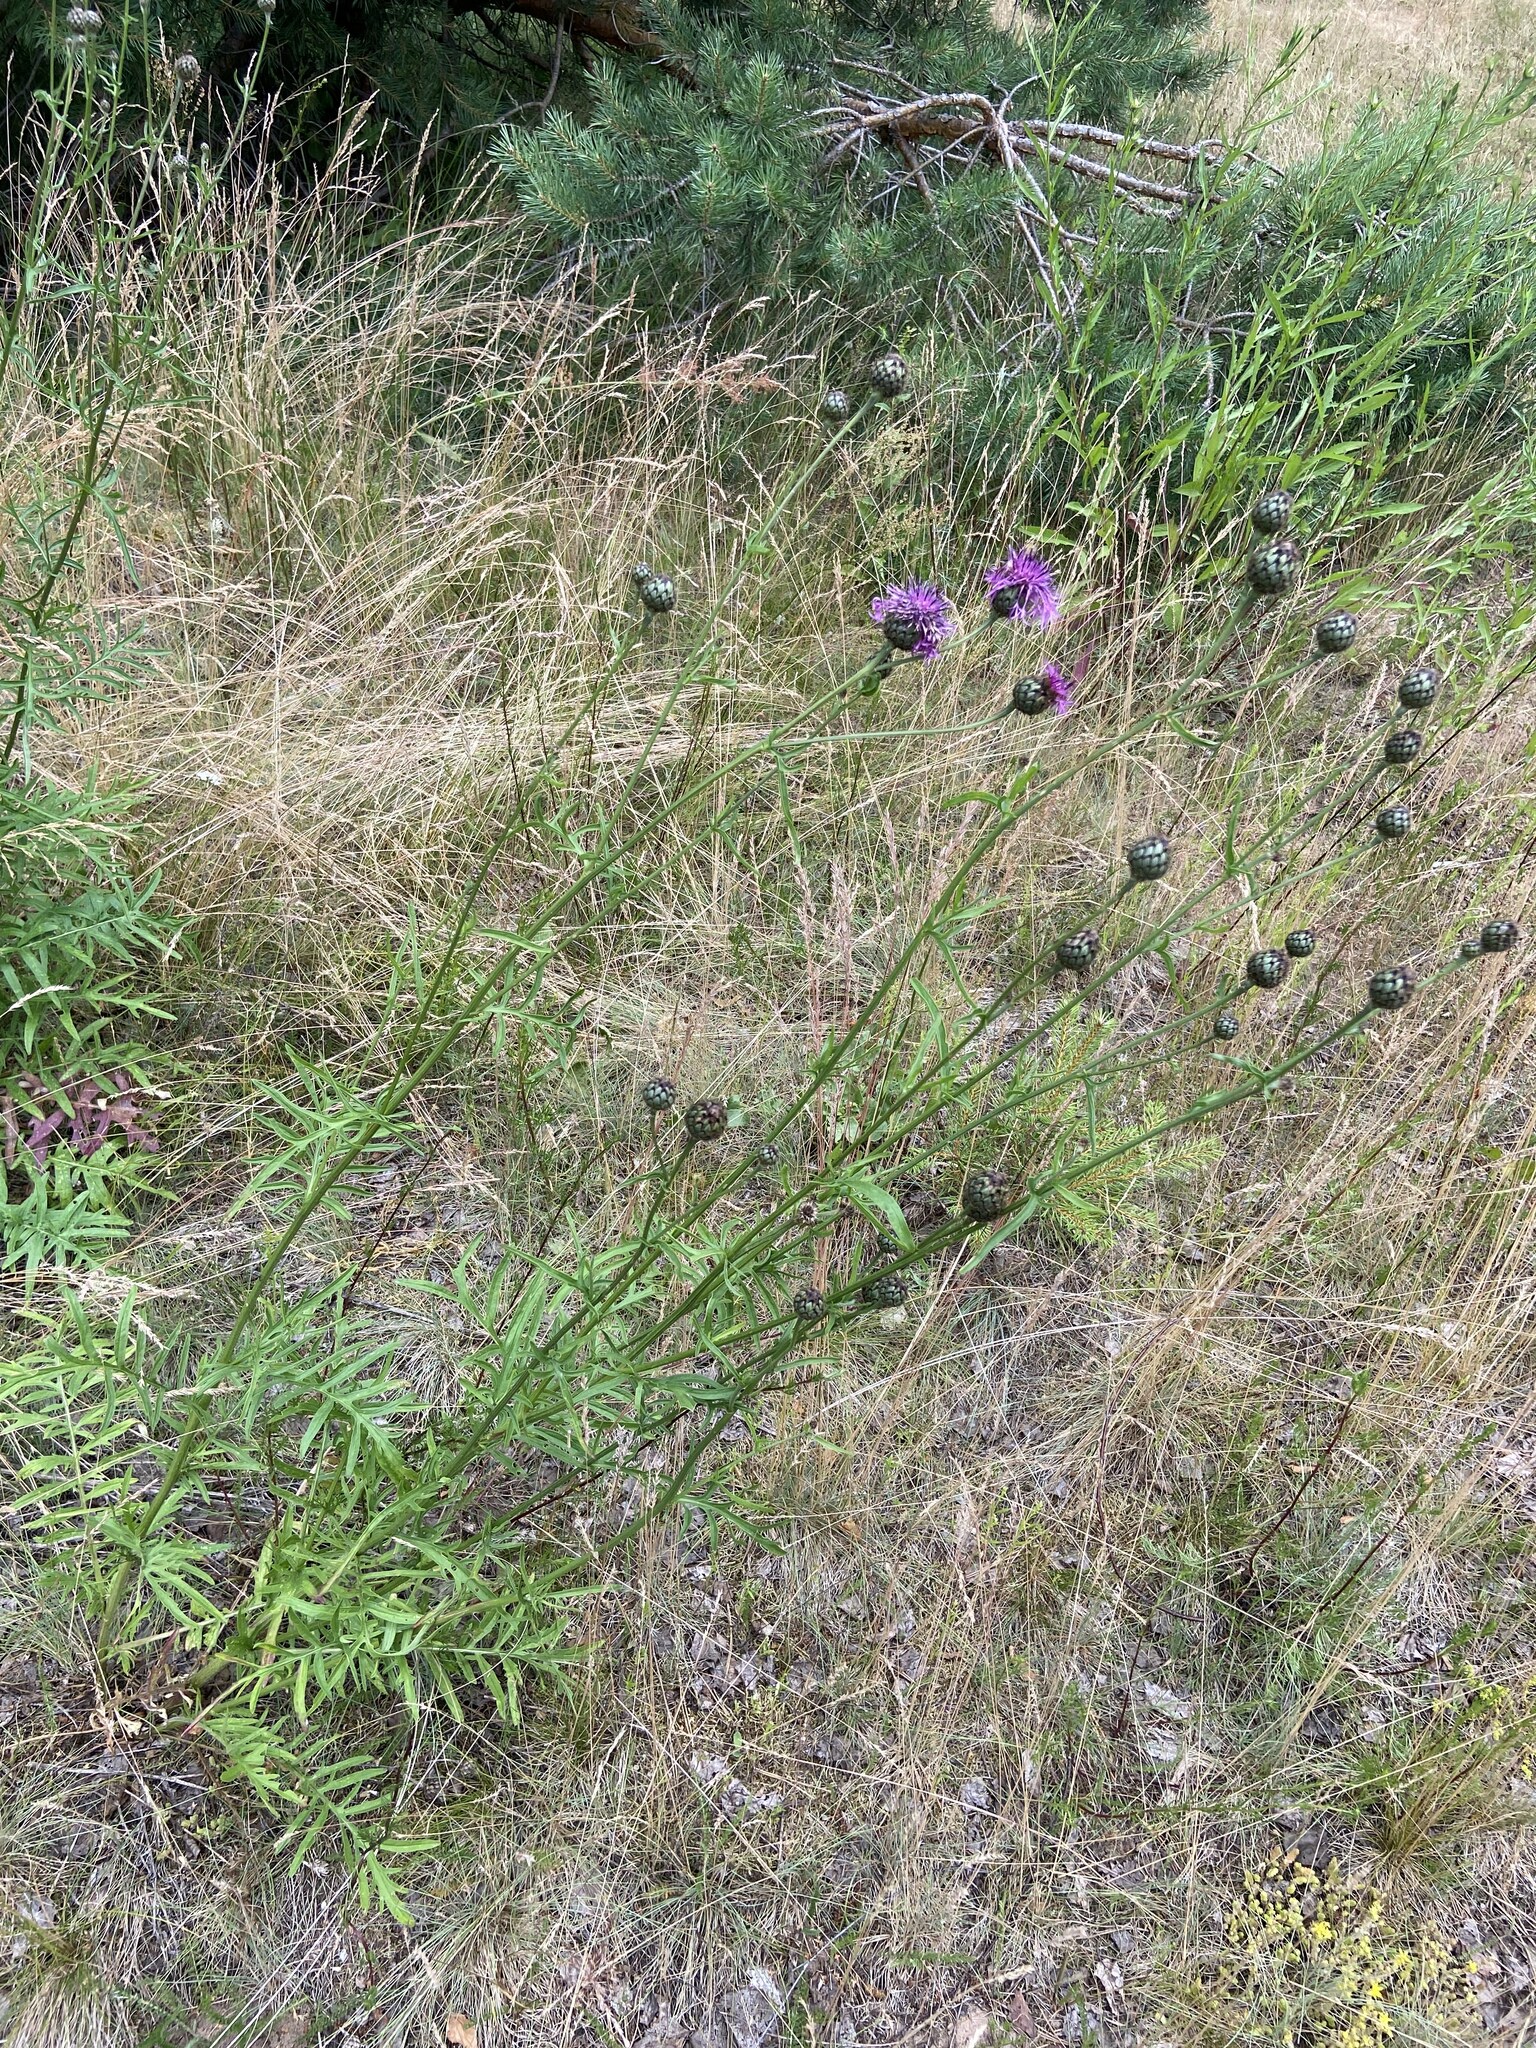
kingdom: Plantae
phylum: Tracheophyta
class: Magnoliopsida
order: Asterales
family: Asteraceae
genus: Centaurea
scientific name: Centaurea scabiosa
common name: Greater knapweed
